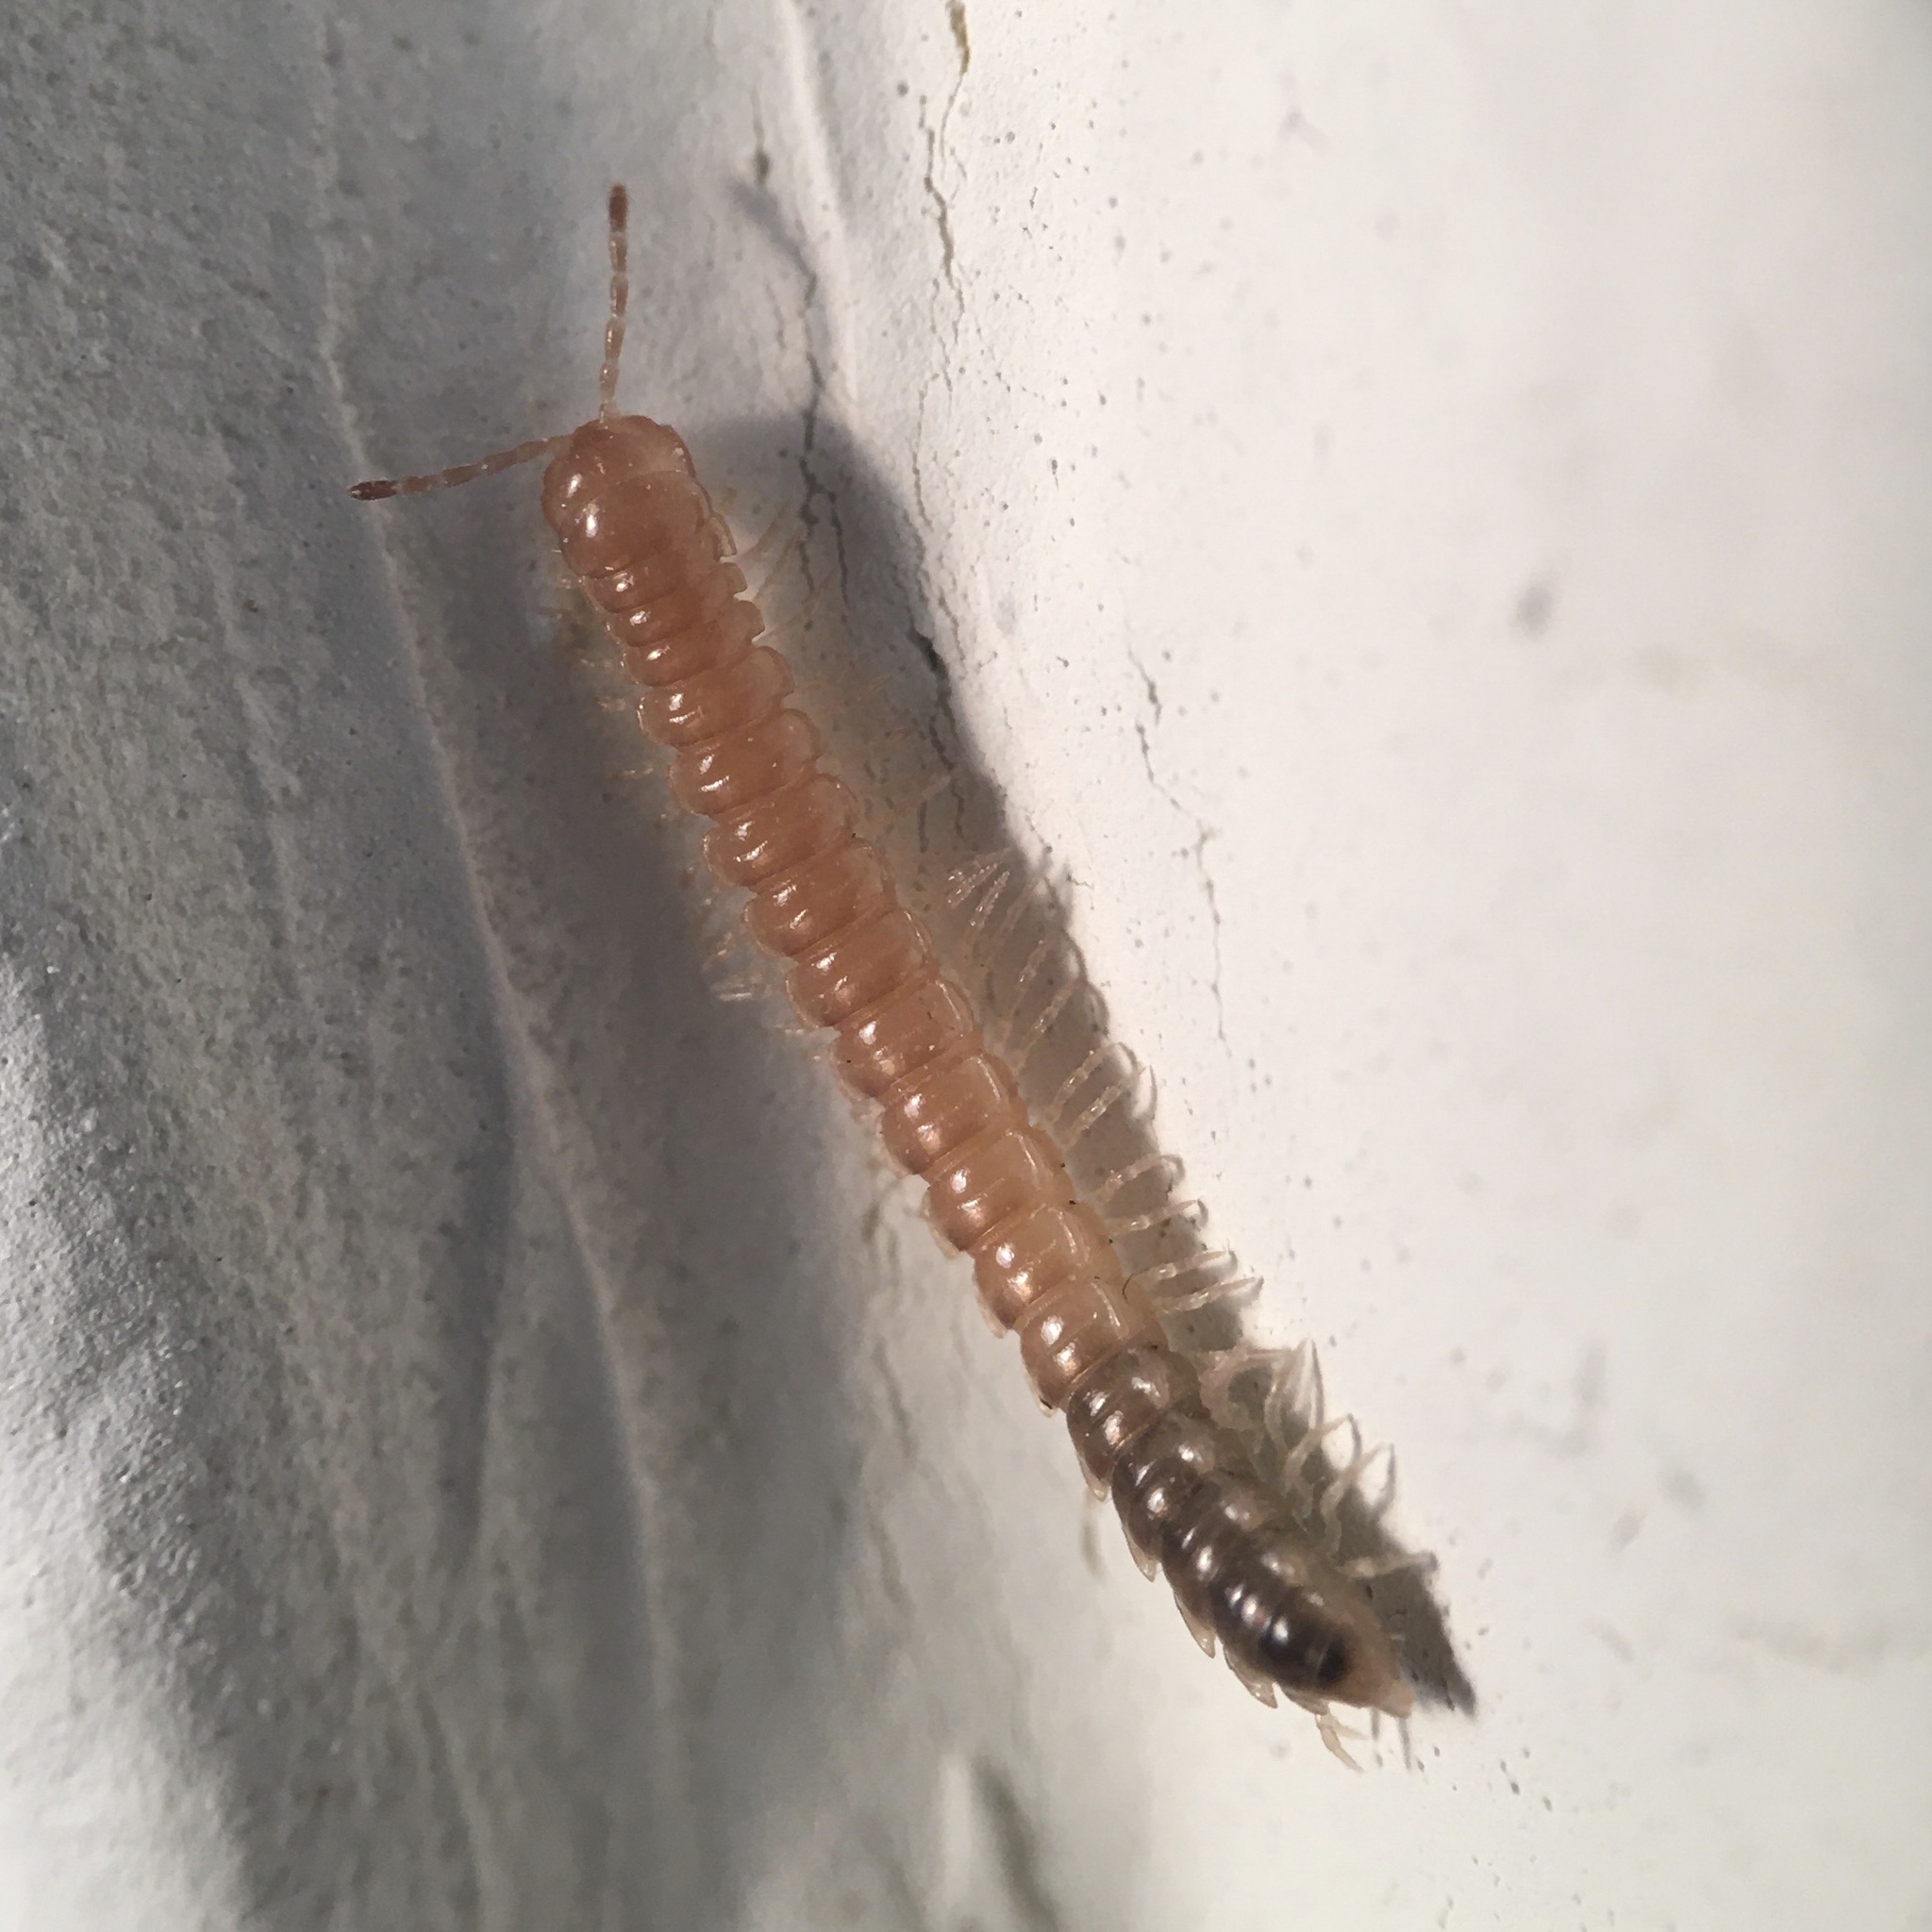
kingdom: Animalia
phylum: Arthropoda
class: Diplopoda
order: Polydesmida
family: Paradoxosomatidae
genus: Oxidus
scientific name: Oxidus gracilis
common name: Greenhouse millipede
